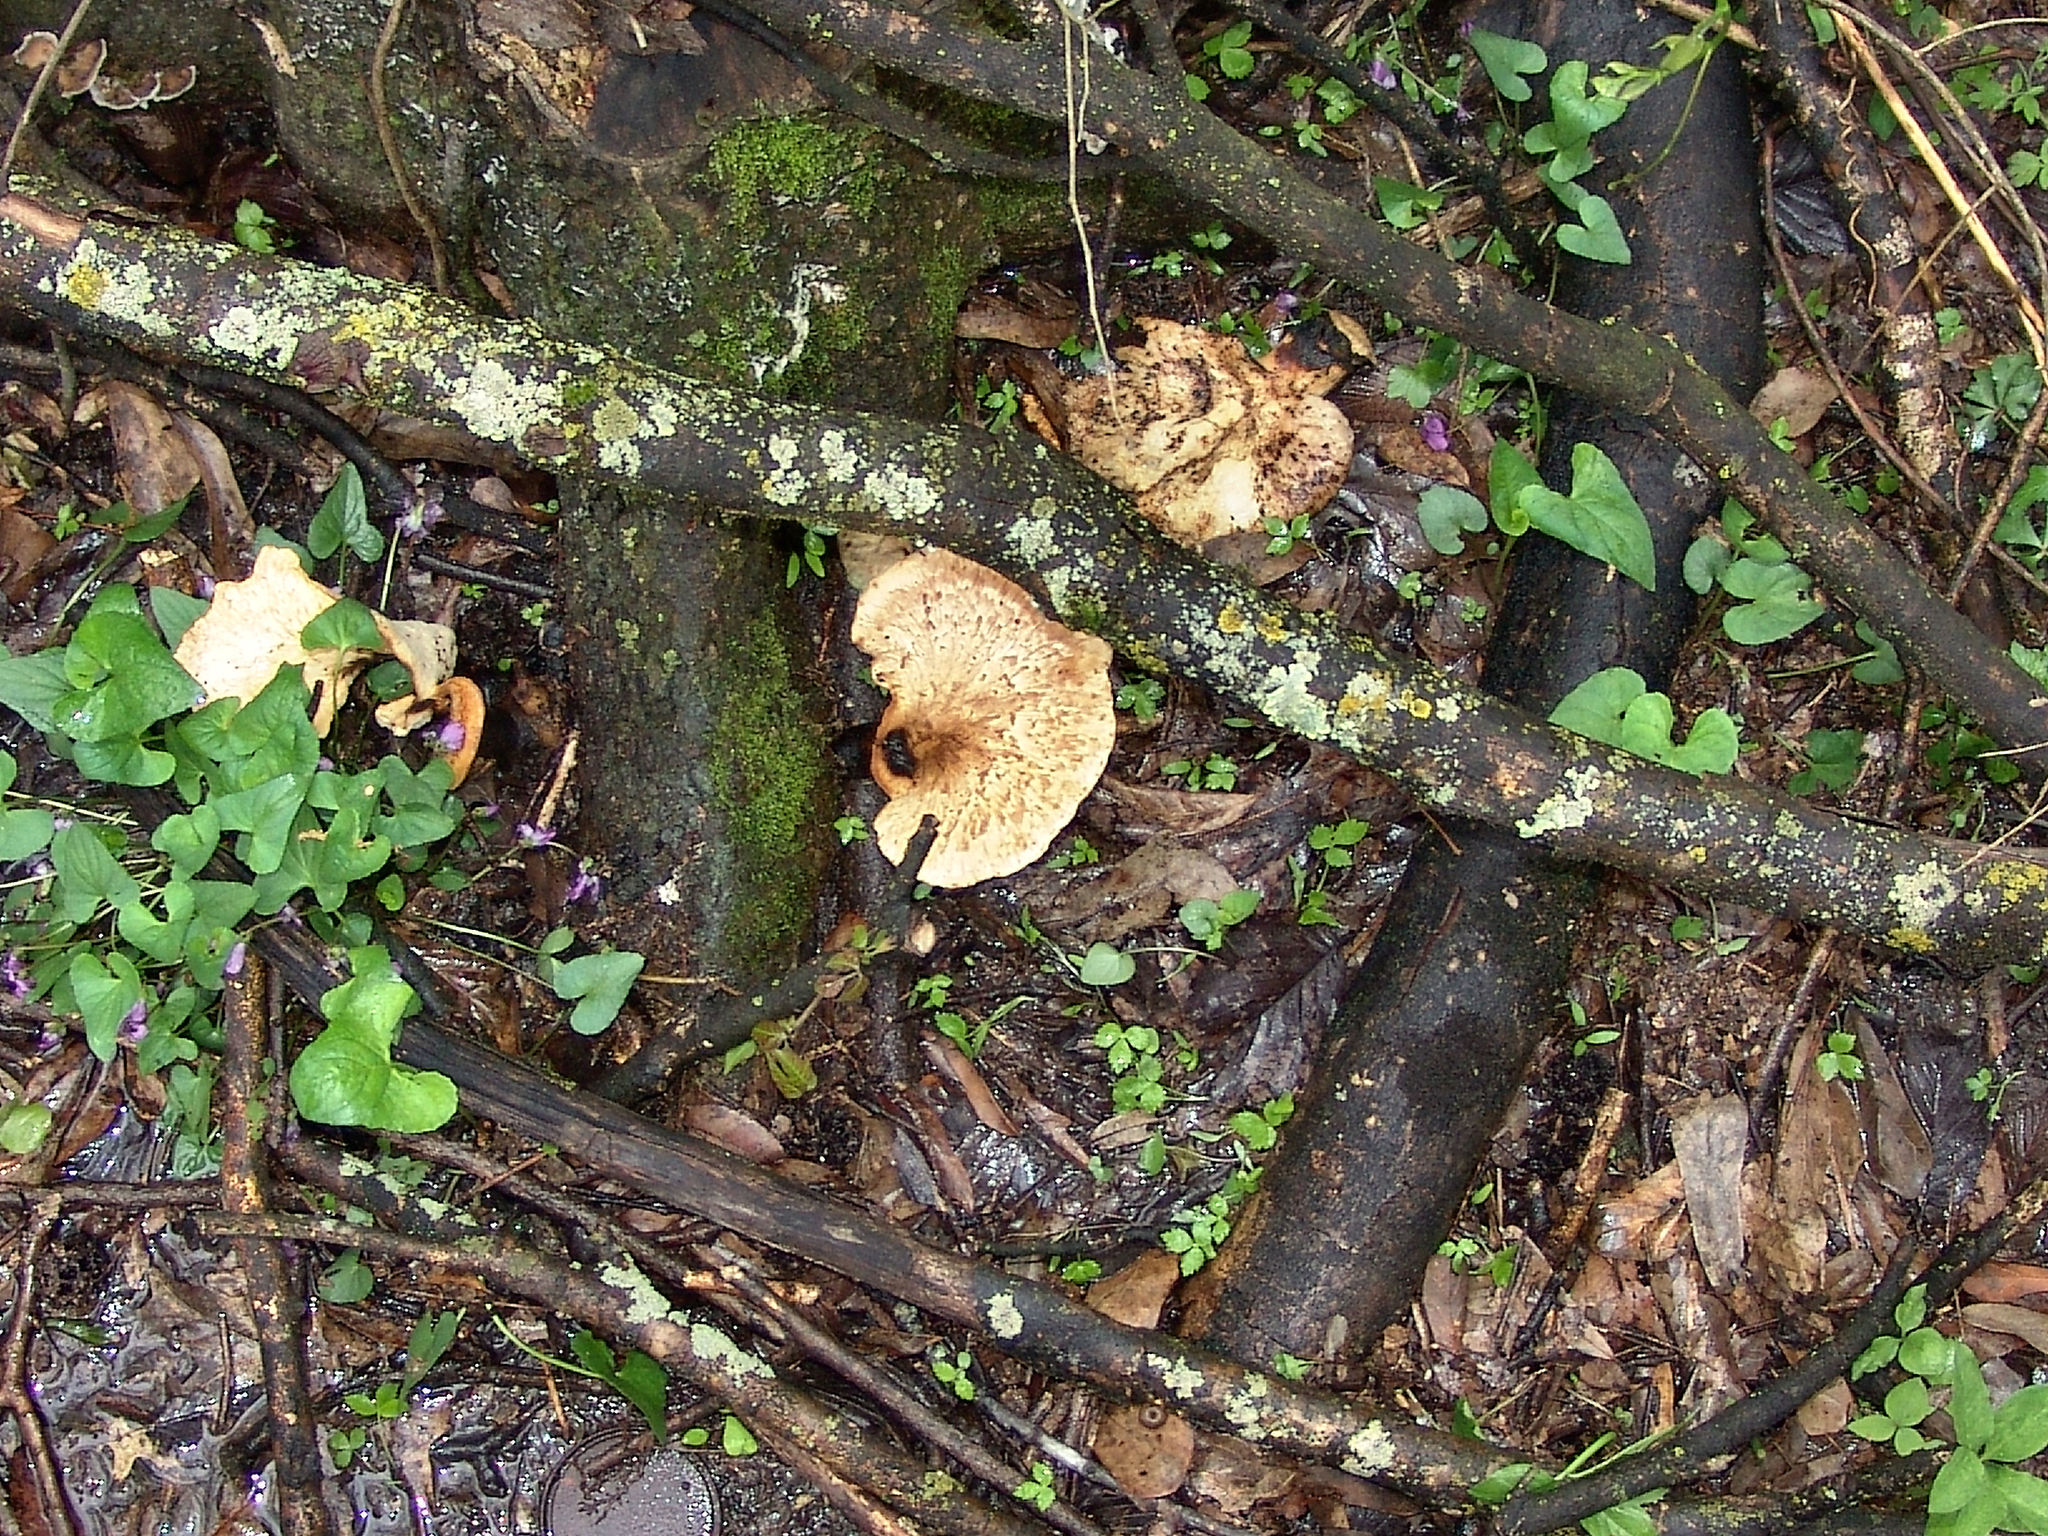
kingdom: Fungi
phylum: Basidiomycota
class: Agaricomycetes
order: Polyporales
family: Polyporaceae
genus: Cerioporus
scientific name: Cerioporus squamosus
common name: Dryad's saddle
